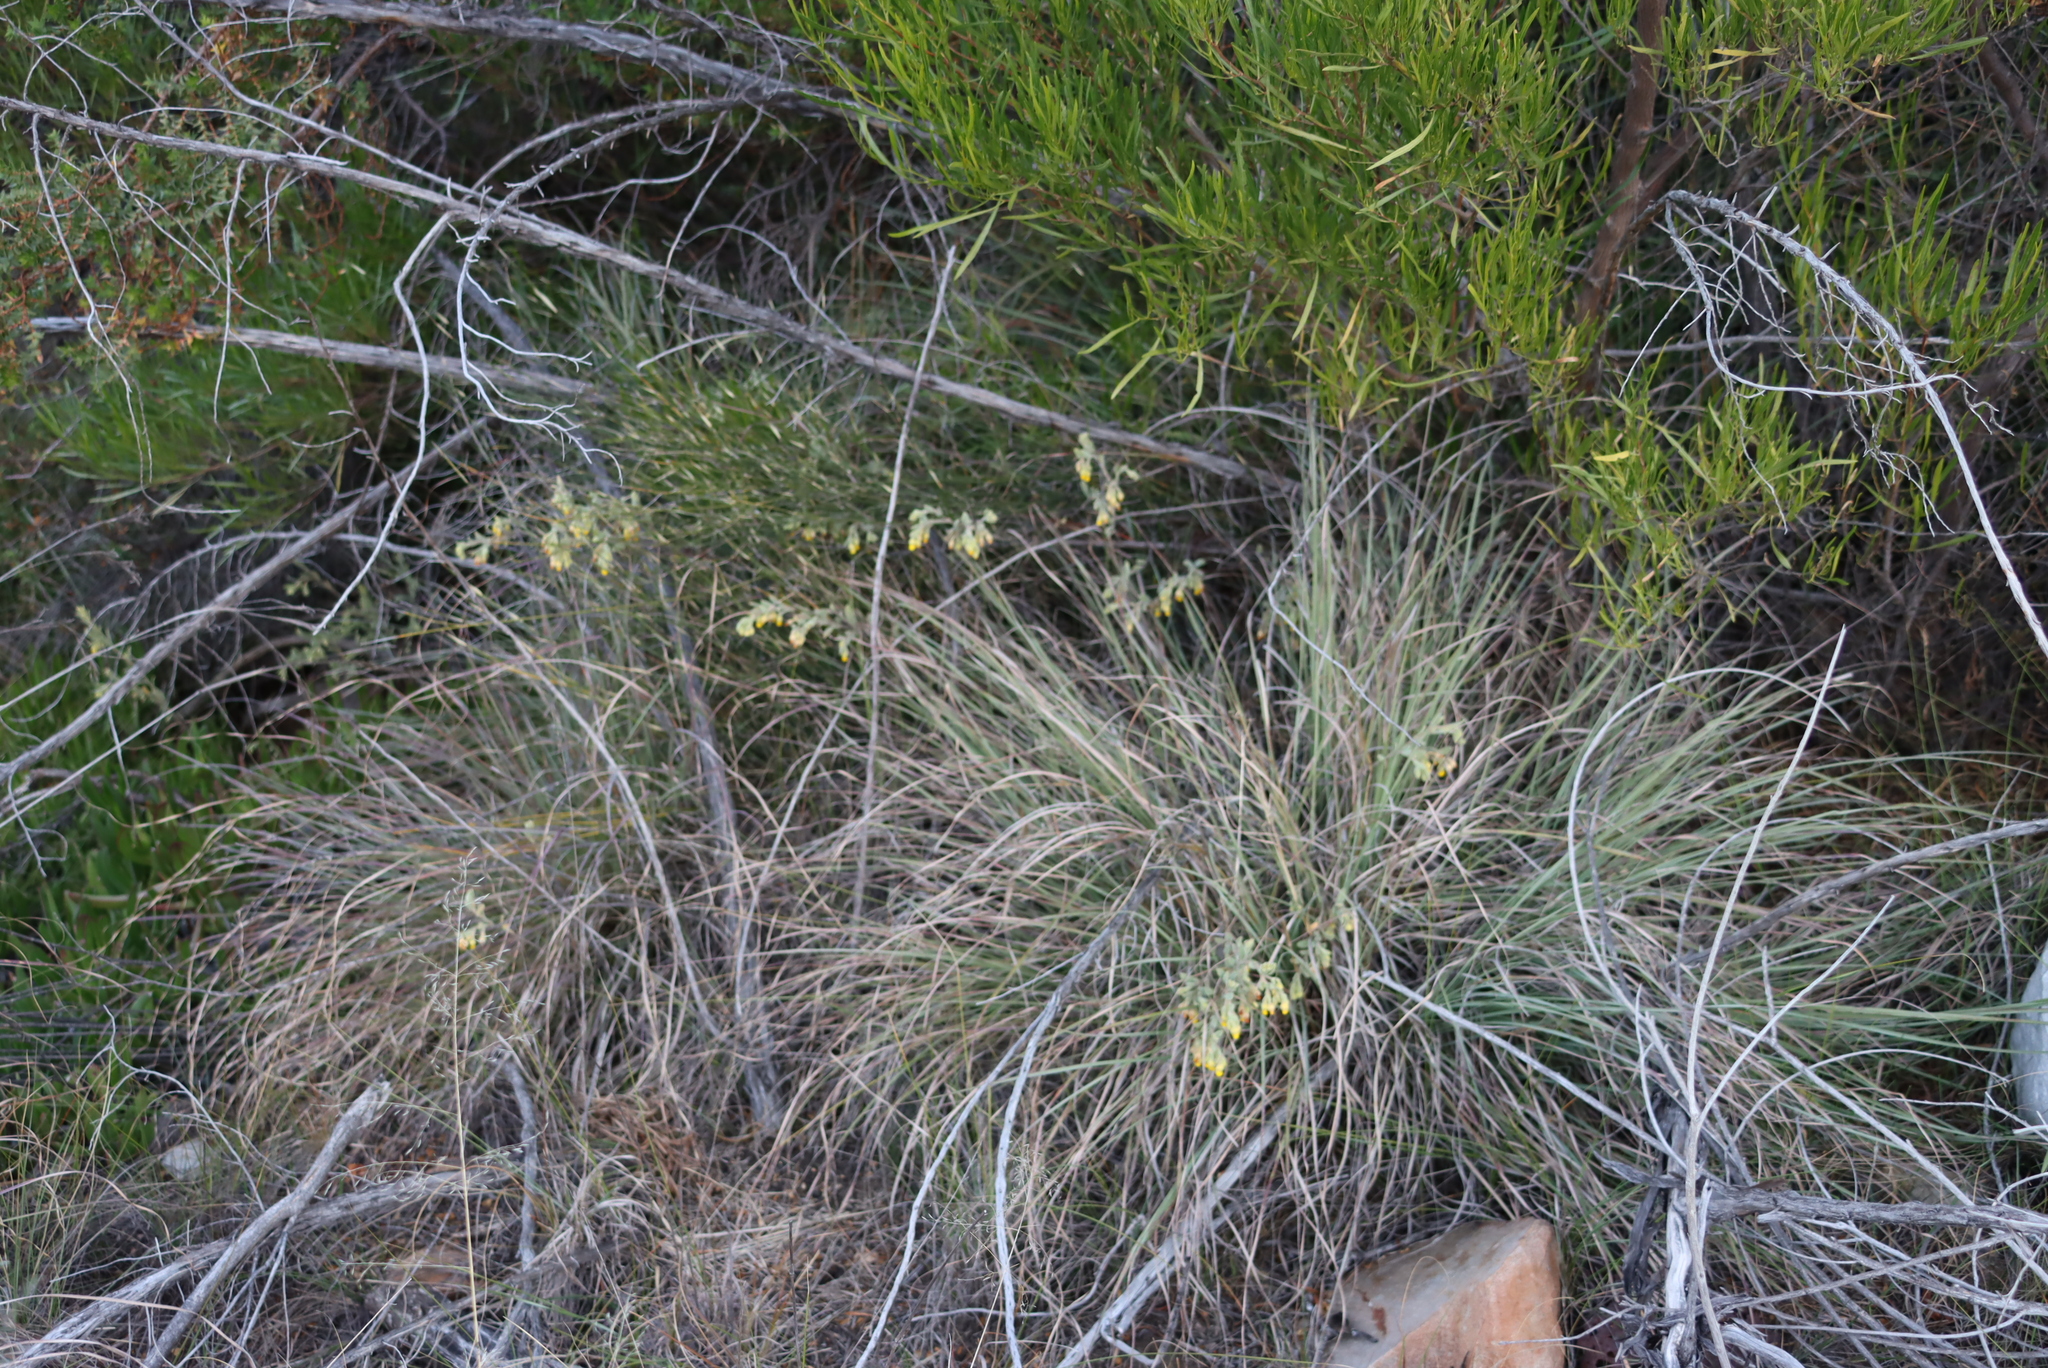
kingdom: Plantae
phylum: Tracheophyta
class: Liliopsida
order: Poales
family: Poaceae
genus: Cymbopogon
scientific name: Cymbopogon pospischilii
